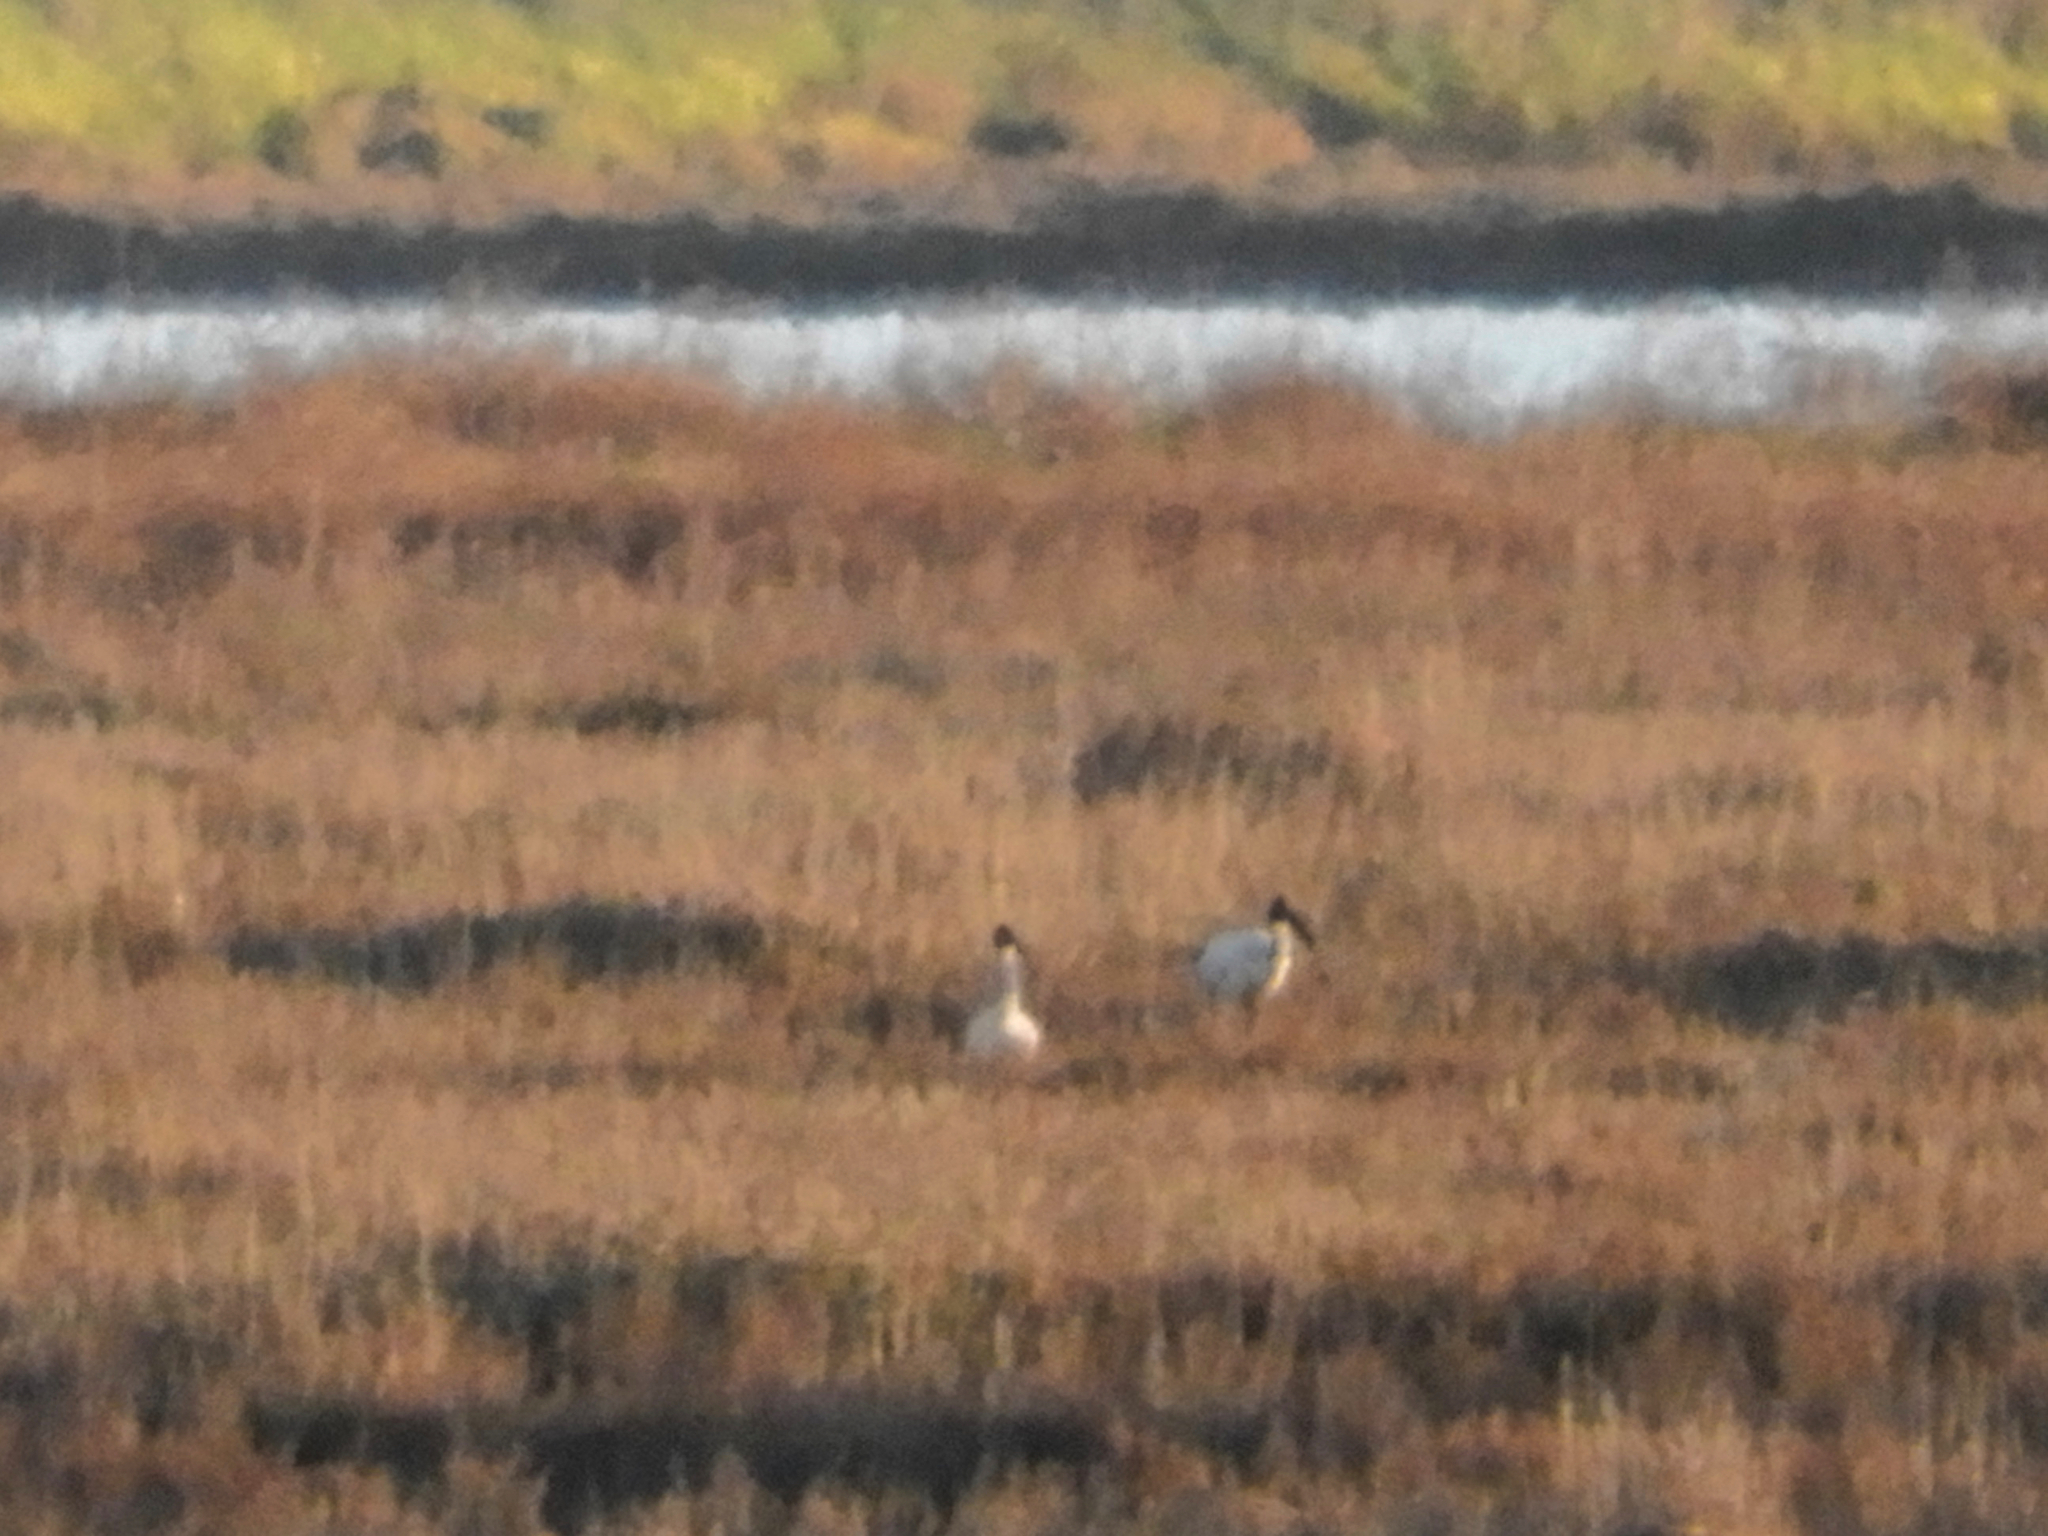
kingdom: Animalia
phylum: Chordata
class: Aves
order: Pelecaniformes
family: Threskiornithidae
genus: Threskiornis
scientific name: Threskiornis aethiopicus
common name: Sacred ibis
